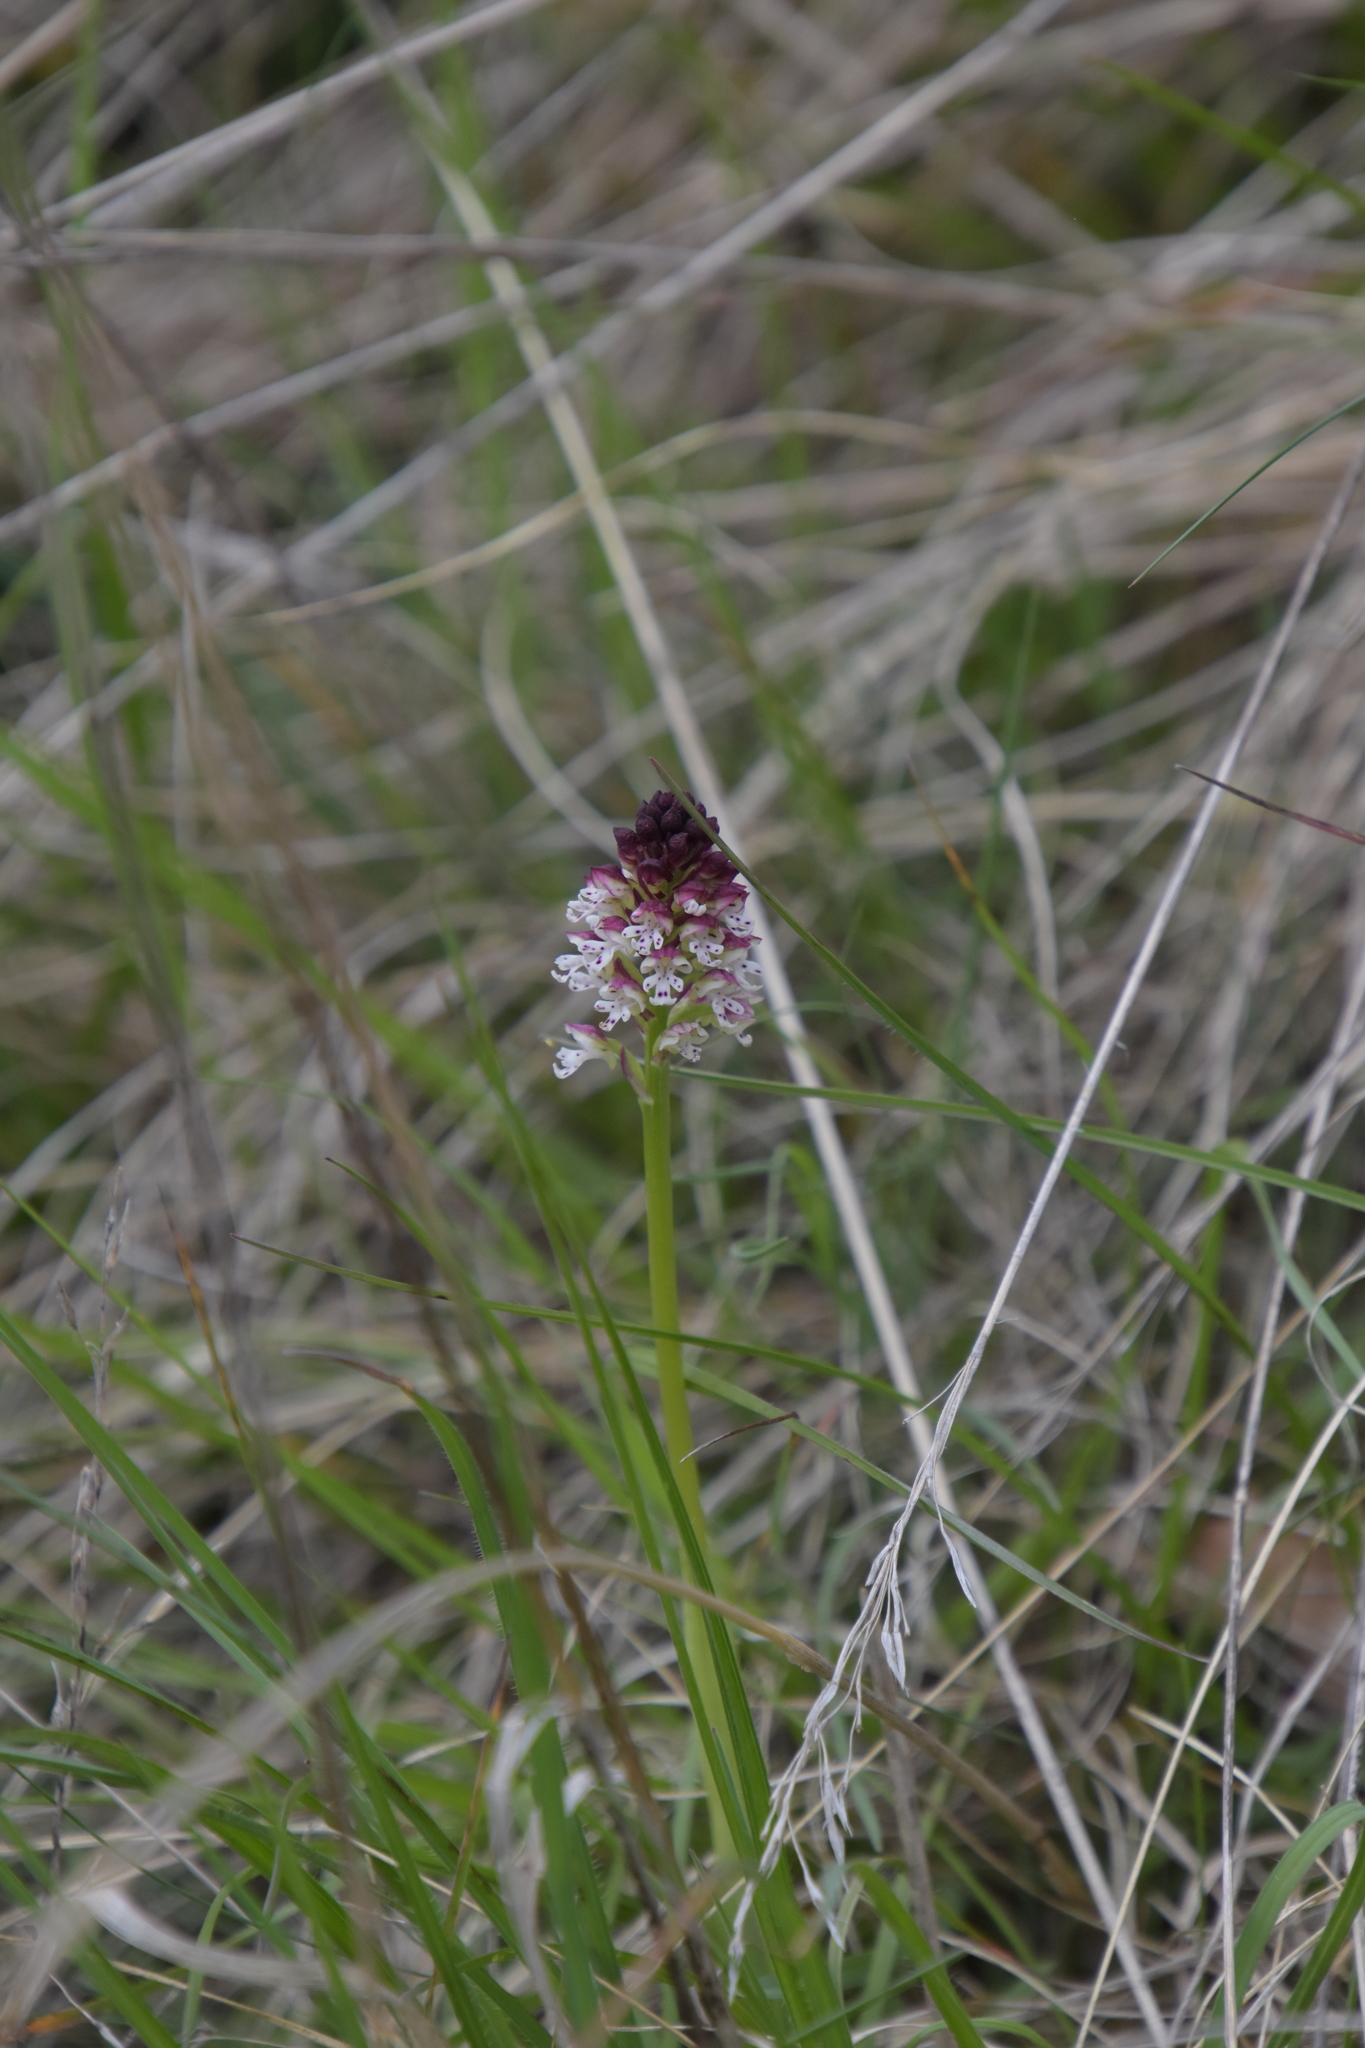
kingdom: Plantae
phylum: Tracheophyta
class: Liliopsida
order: Asparagales
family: Orchidaceae
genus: Neotinea
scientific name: Neotinea ustulata
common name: Burnt orchid
